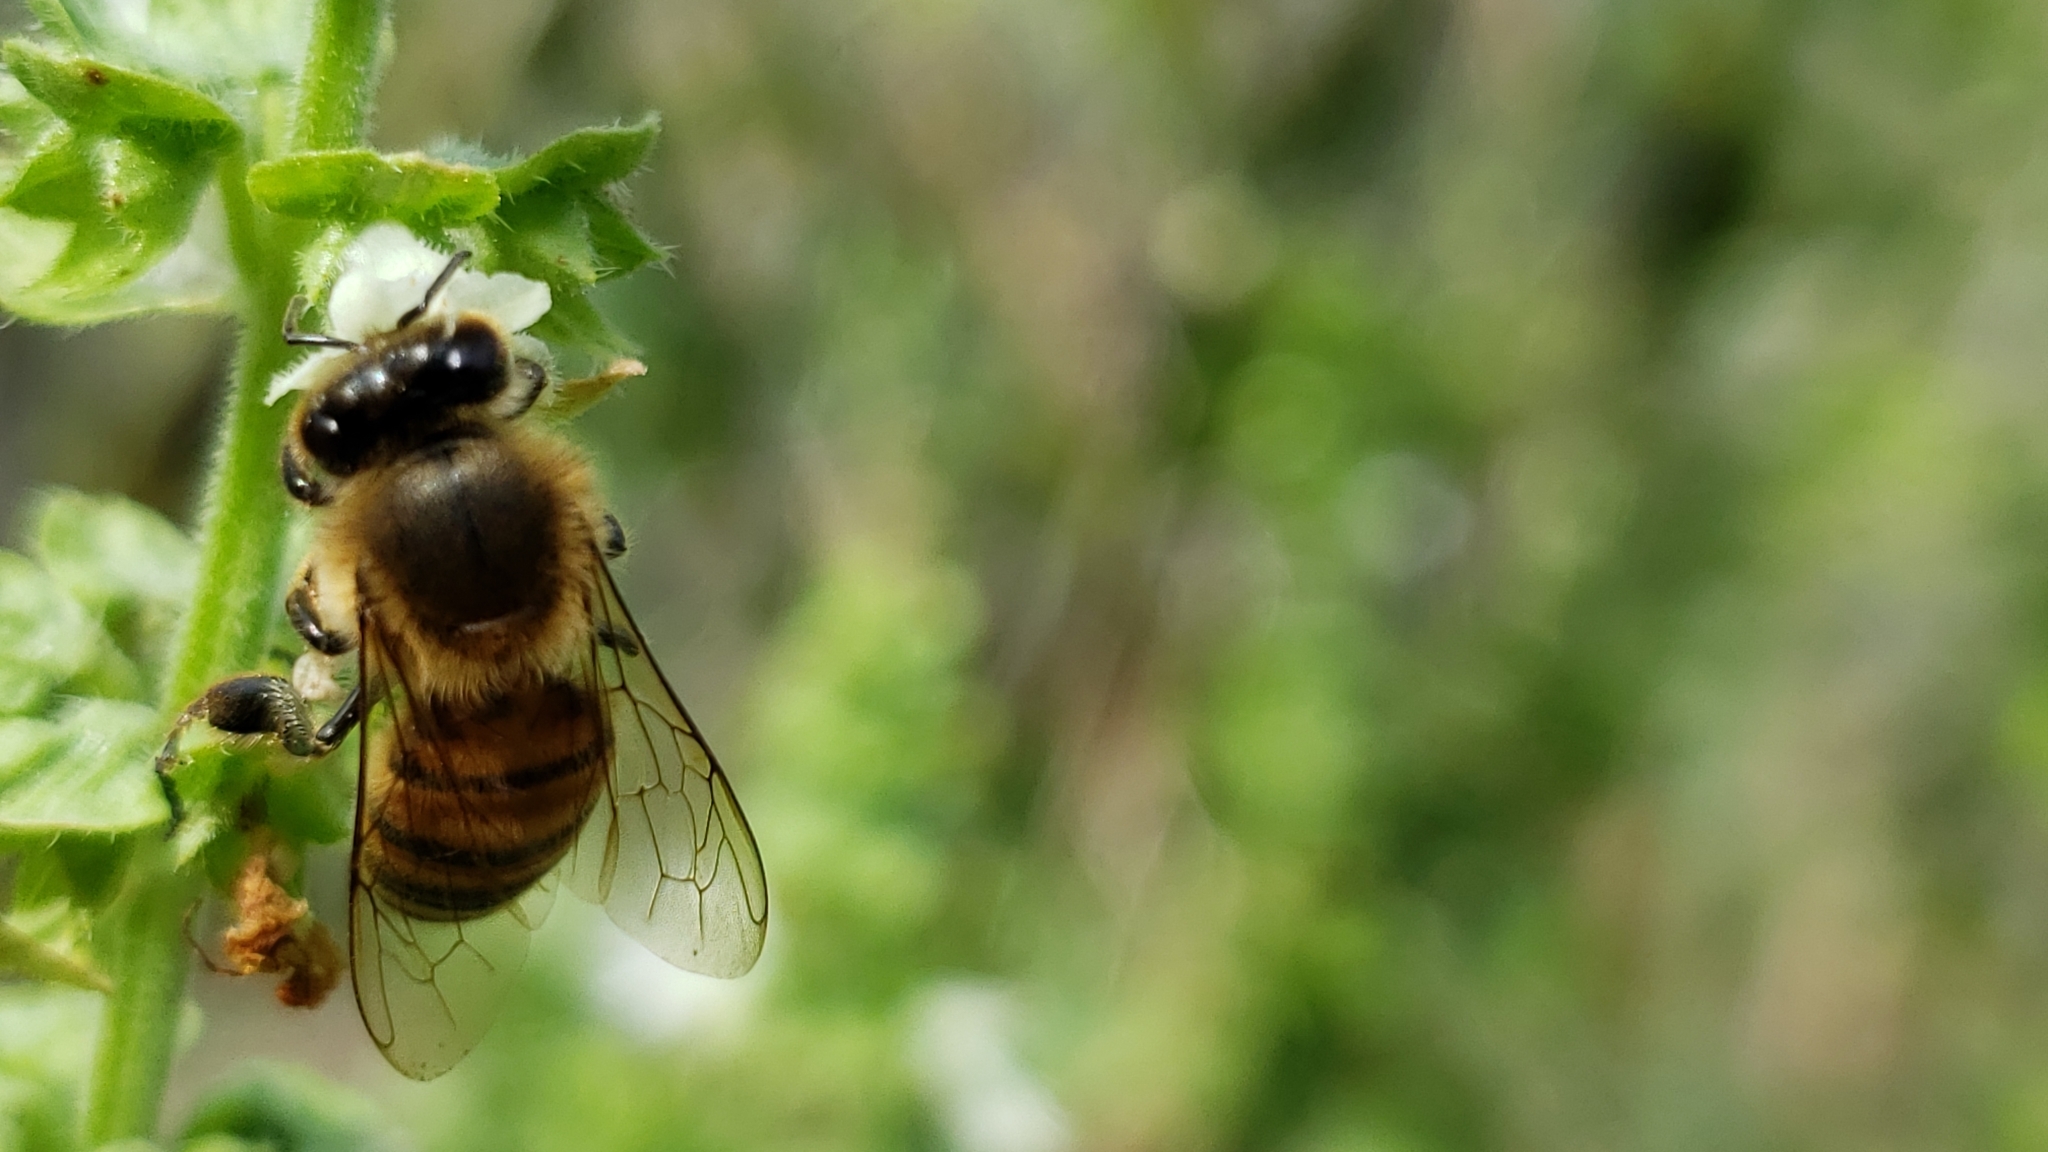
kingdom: Animalia
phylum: Arthropoda
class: Insecta
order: Hymenoptera
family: Apidae
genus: Apis
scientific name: Apis mellifera
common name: Honey bee
